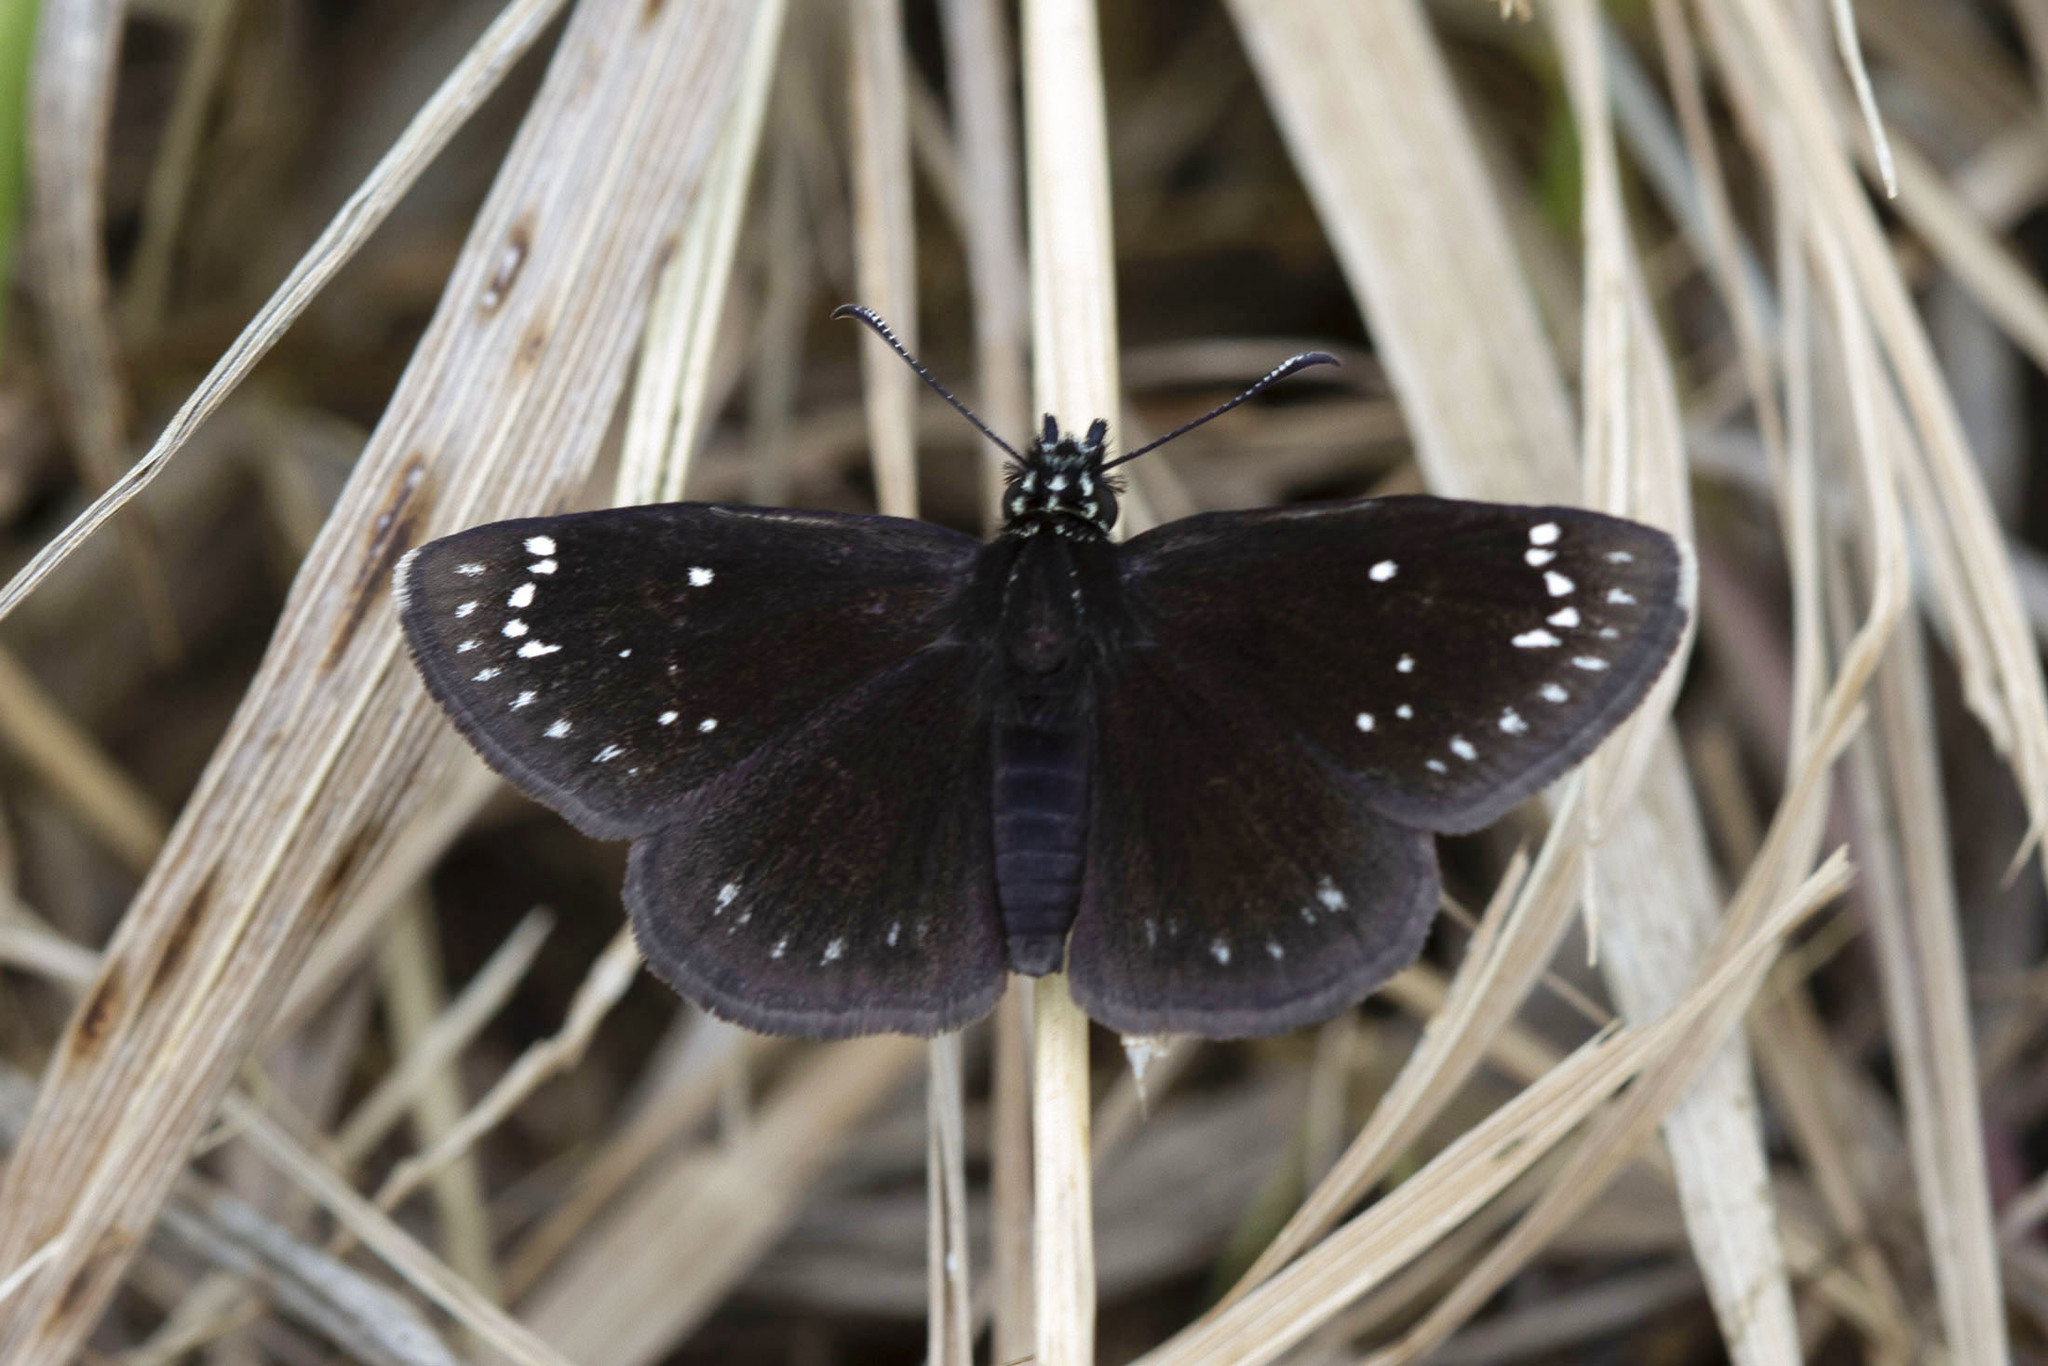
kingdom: Animalia
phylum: Arthropoda
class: Insecta
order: Lepidoptera
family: Hesperiidae
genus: Pholisora
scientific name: Pholisora catullus
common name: Common sootywing
